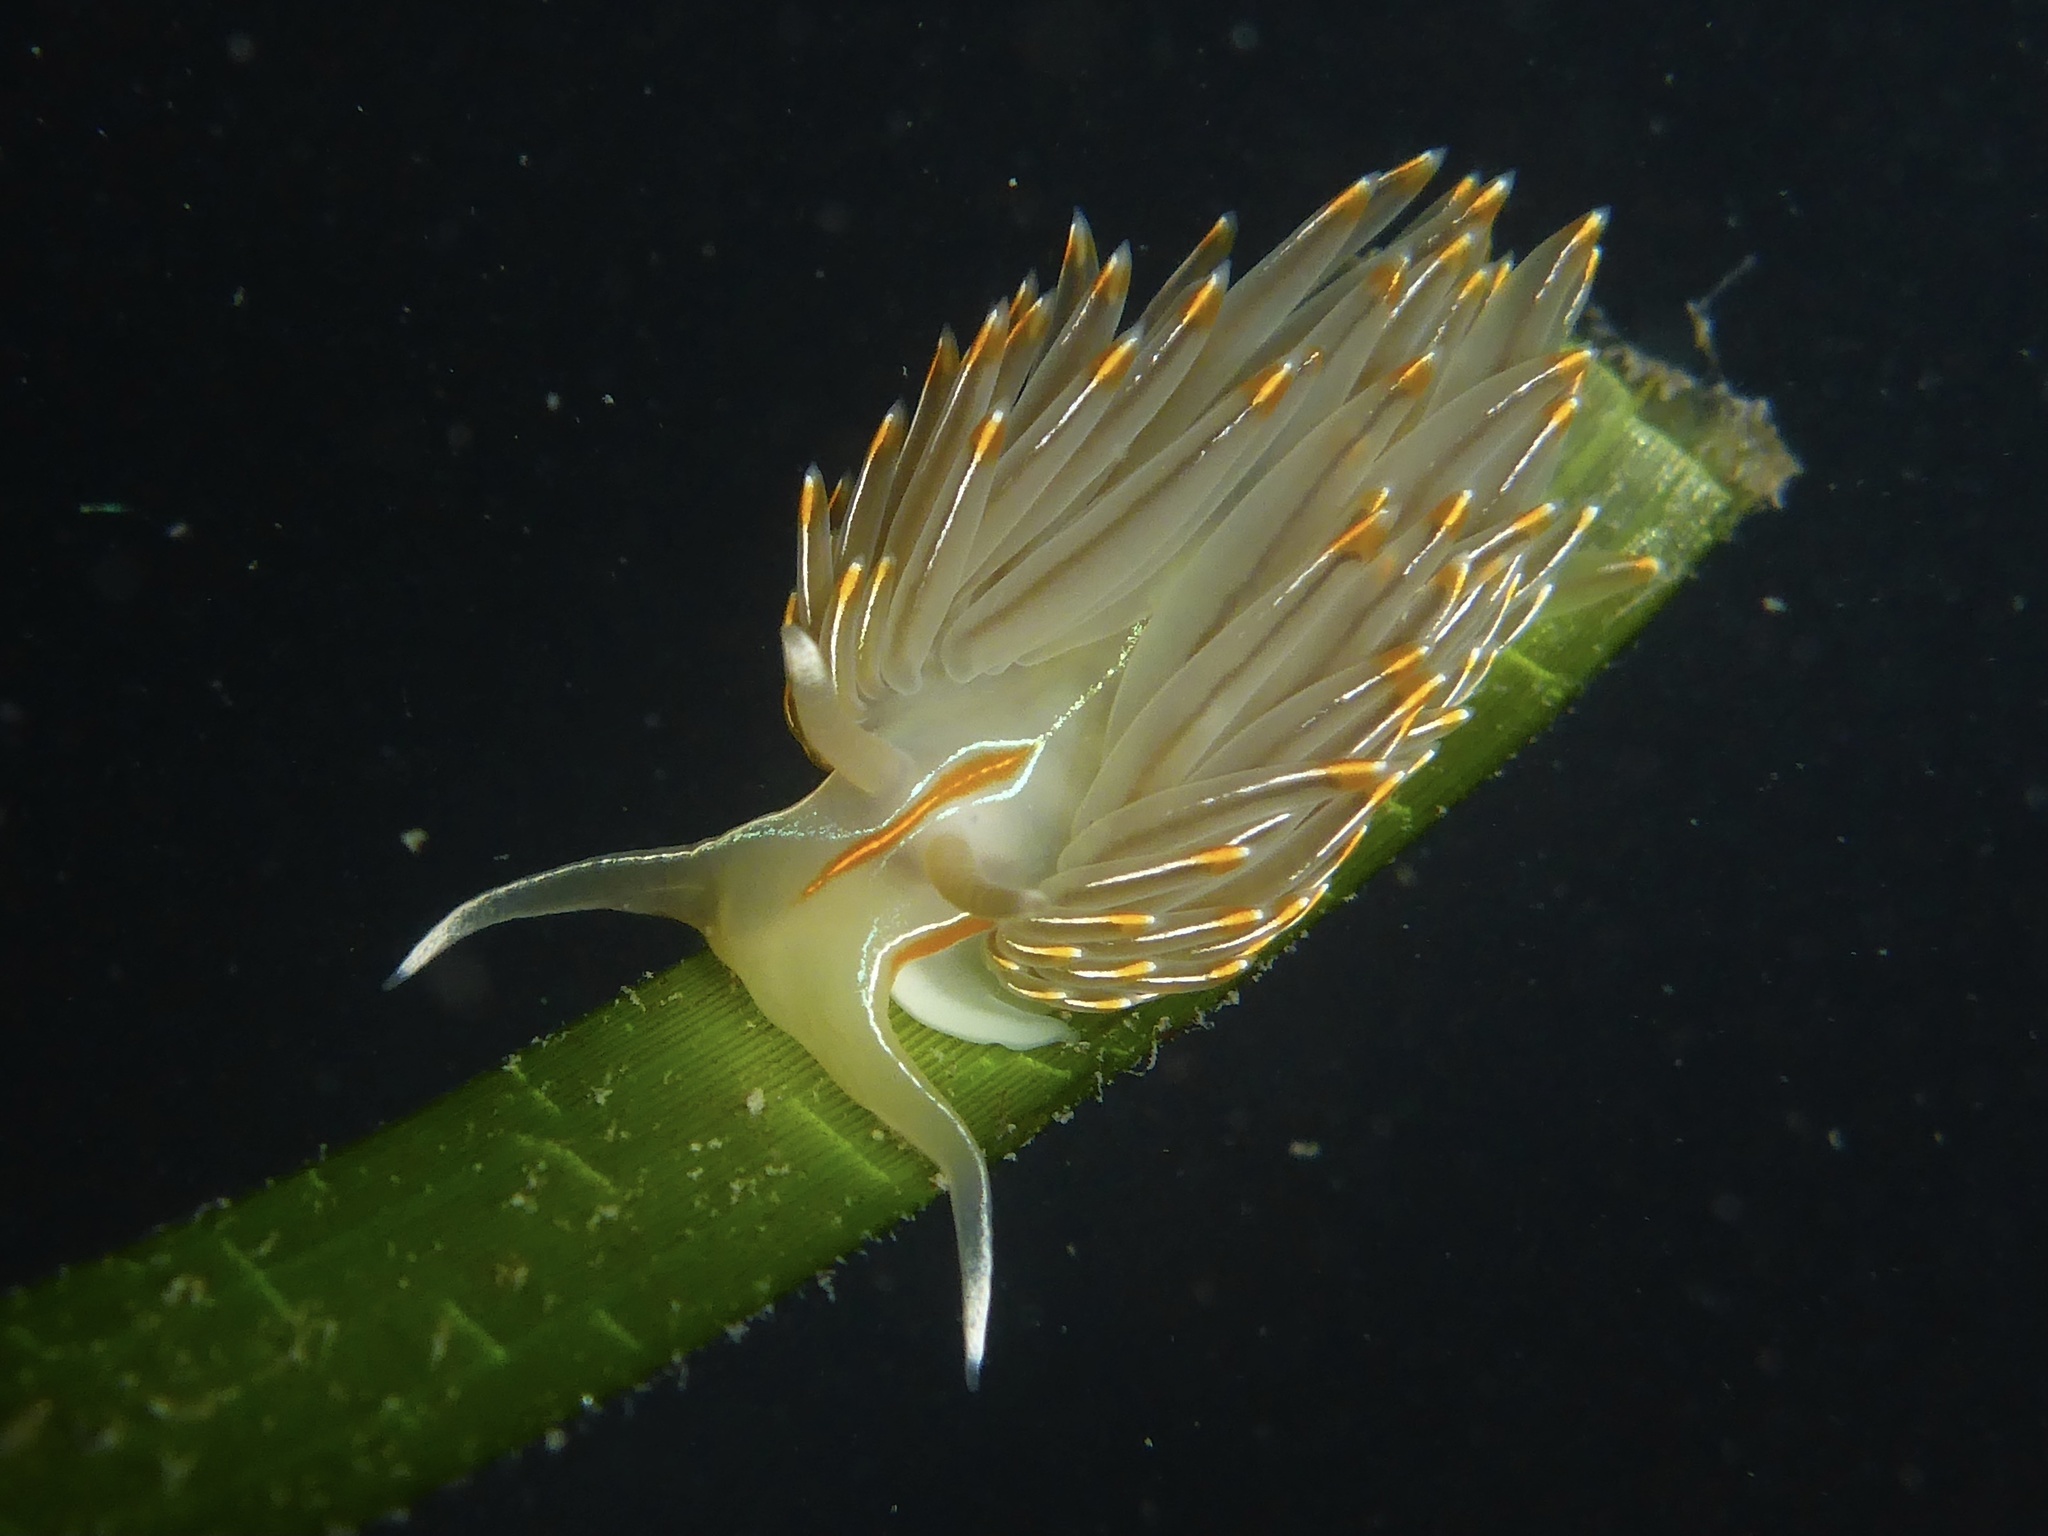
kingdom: Animalia
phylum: Mollusca
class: Gastropoda
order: Nudibranchia
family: Myrrhinidae
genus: Hermissenda
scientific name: Hermissenda crassicornis
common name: Hermissenda
